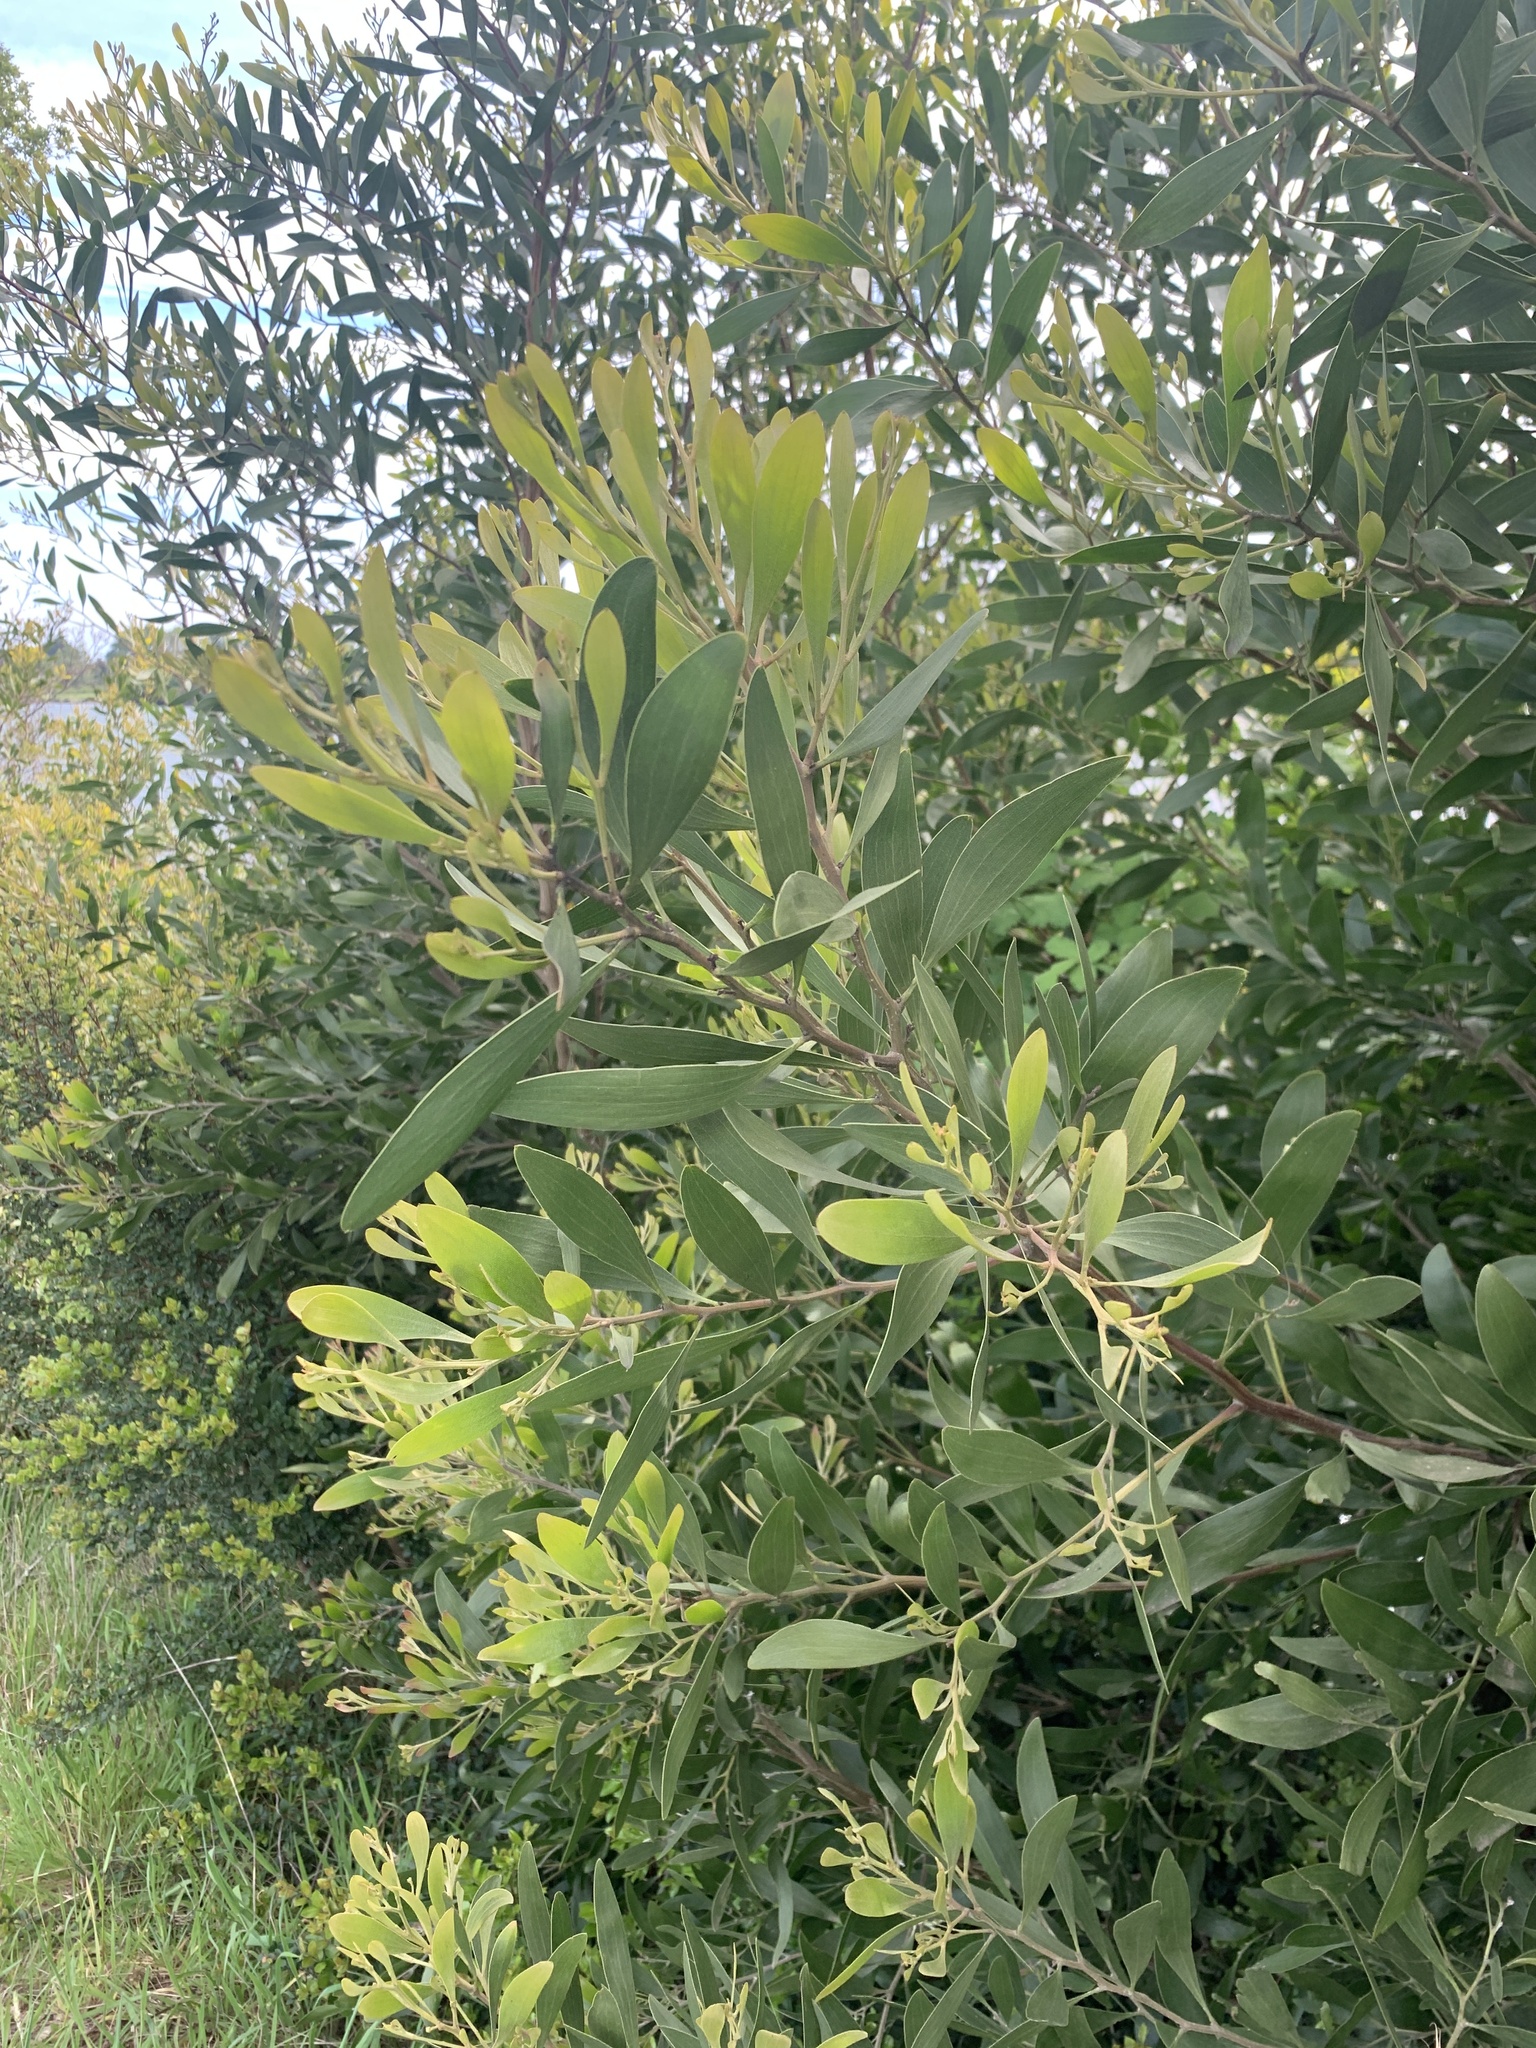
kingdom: Plantae
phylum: Tracheophyta
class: Magnoliopsida
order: Fabales
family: Fabaceae
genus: Acacia
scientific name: Acacia melanoxylon
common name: Blackwood
